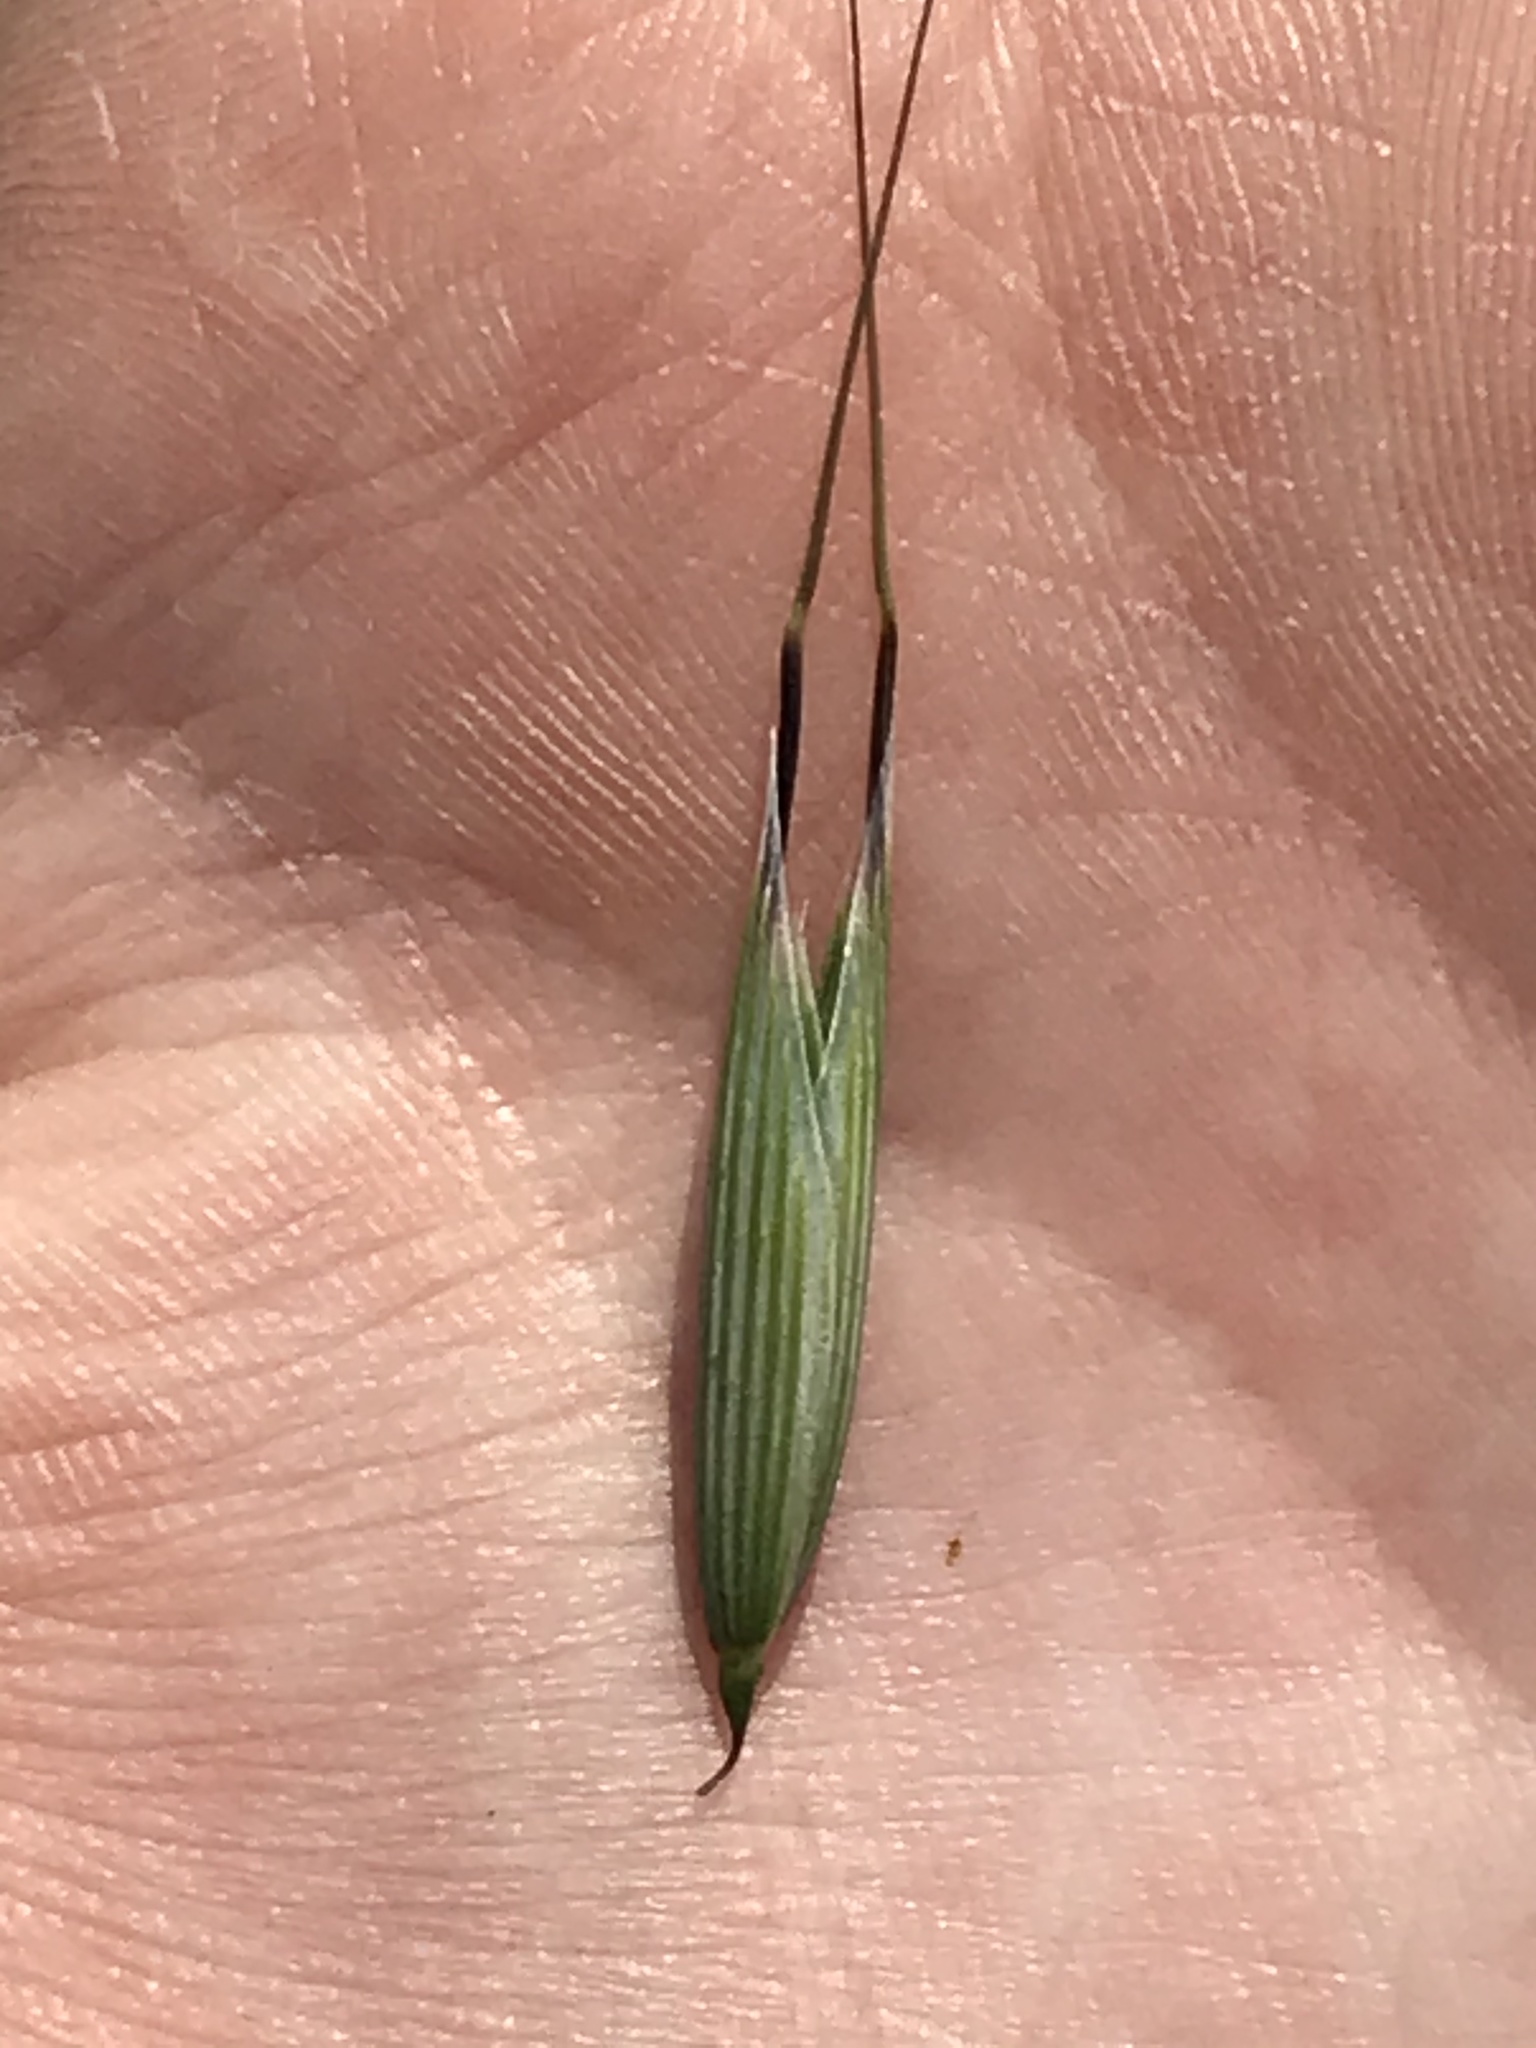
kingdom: Plantae
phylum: Tracheophyta
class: Liliopsida
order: Poales
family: Poaceae
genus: Avena
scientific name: Avena fatua
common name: Wild oat
